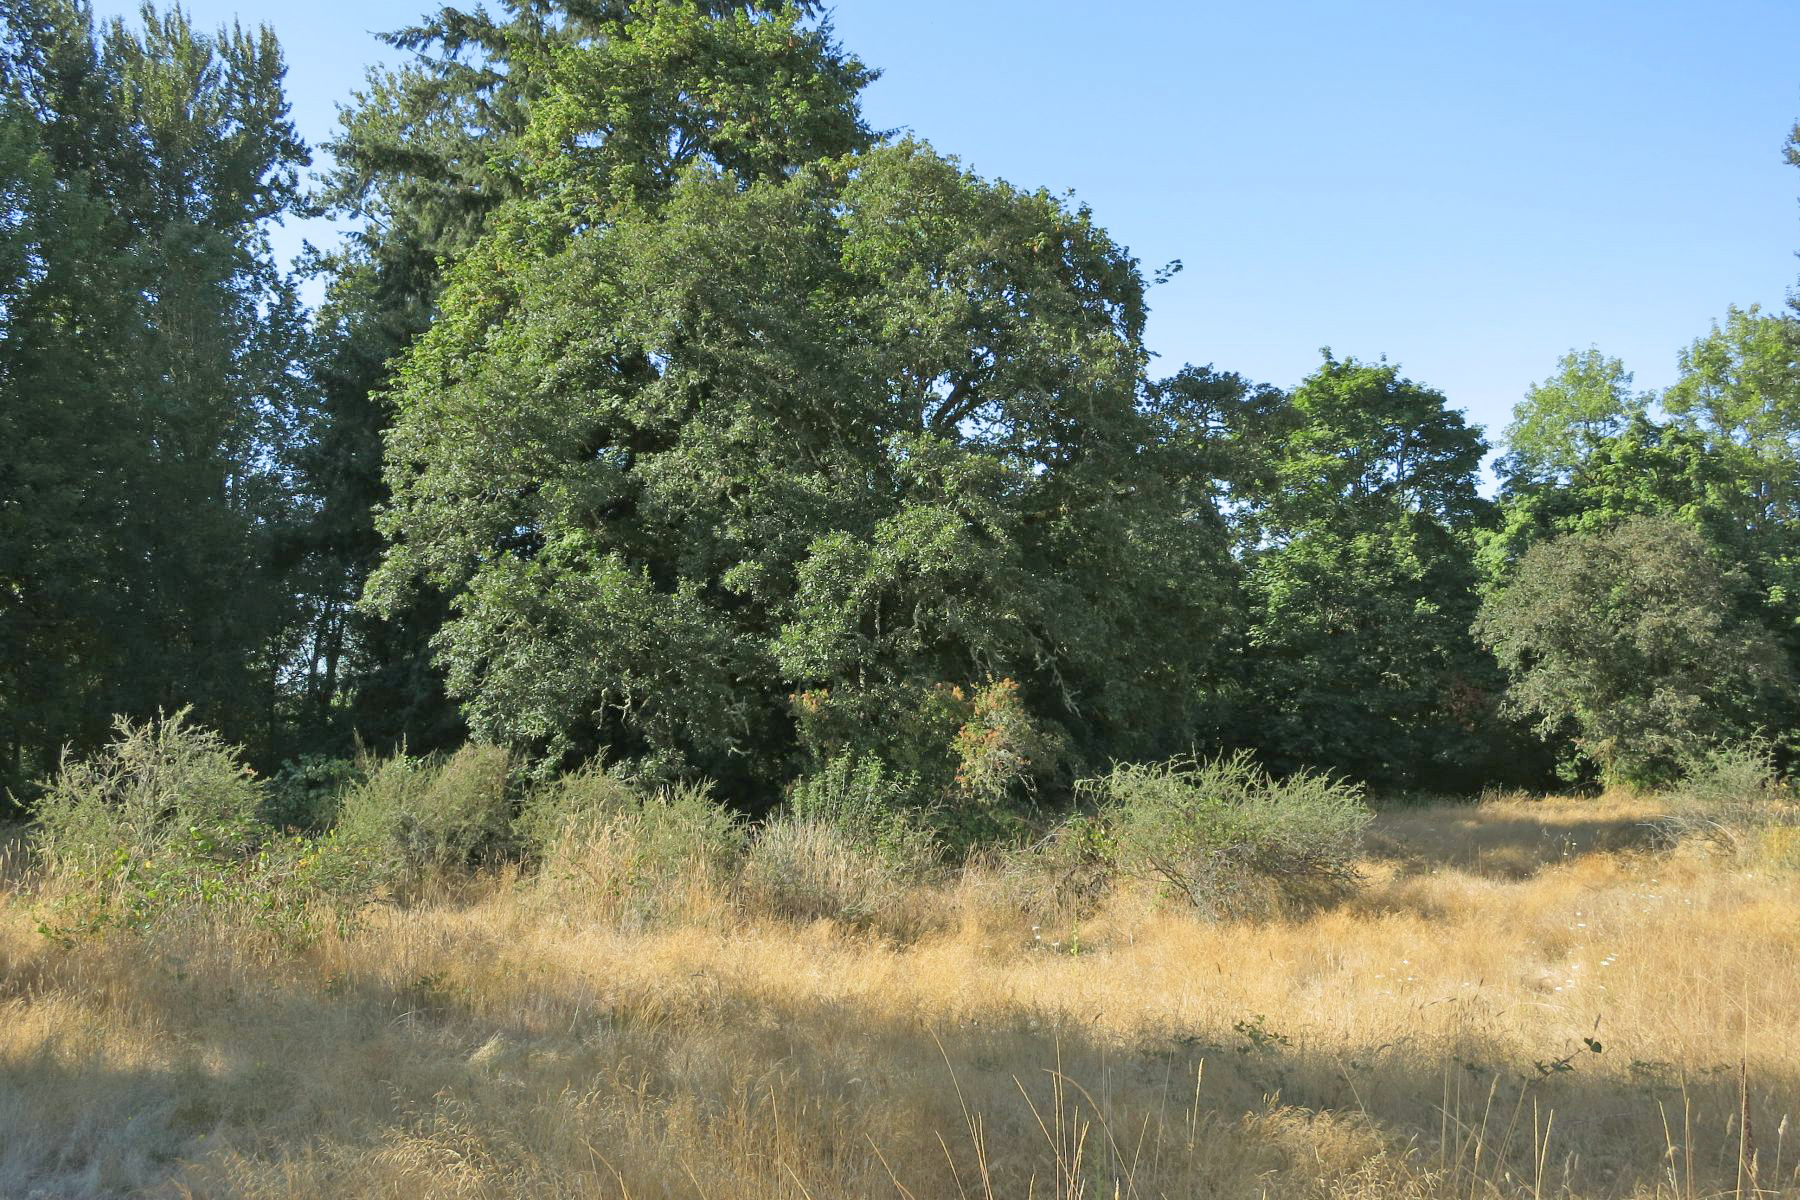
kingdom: Plantae
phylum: Tracheophyta
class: Magnoliopsida
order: Fagales
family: Fagaceae
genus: Quercus
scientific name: Quercus garryana
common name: Garry oak
